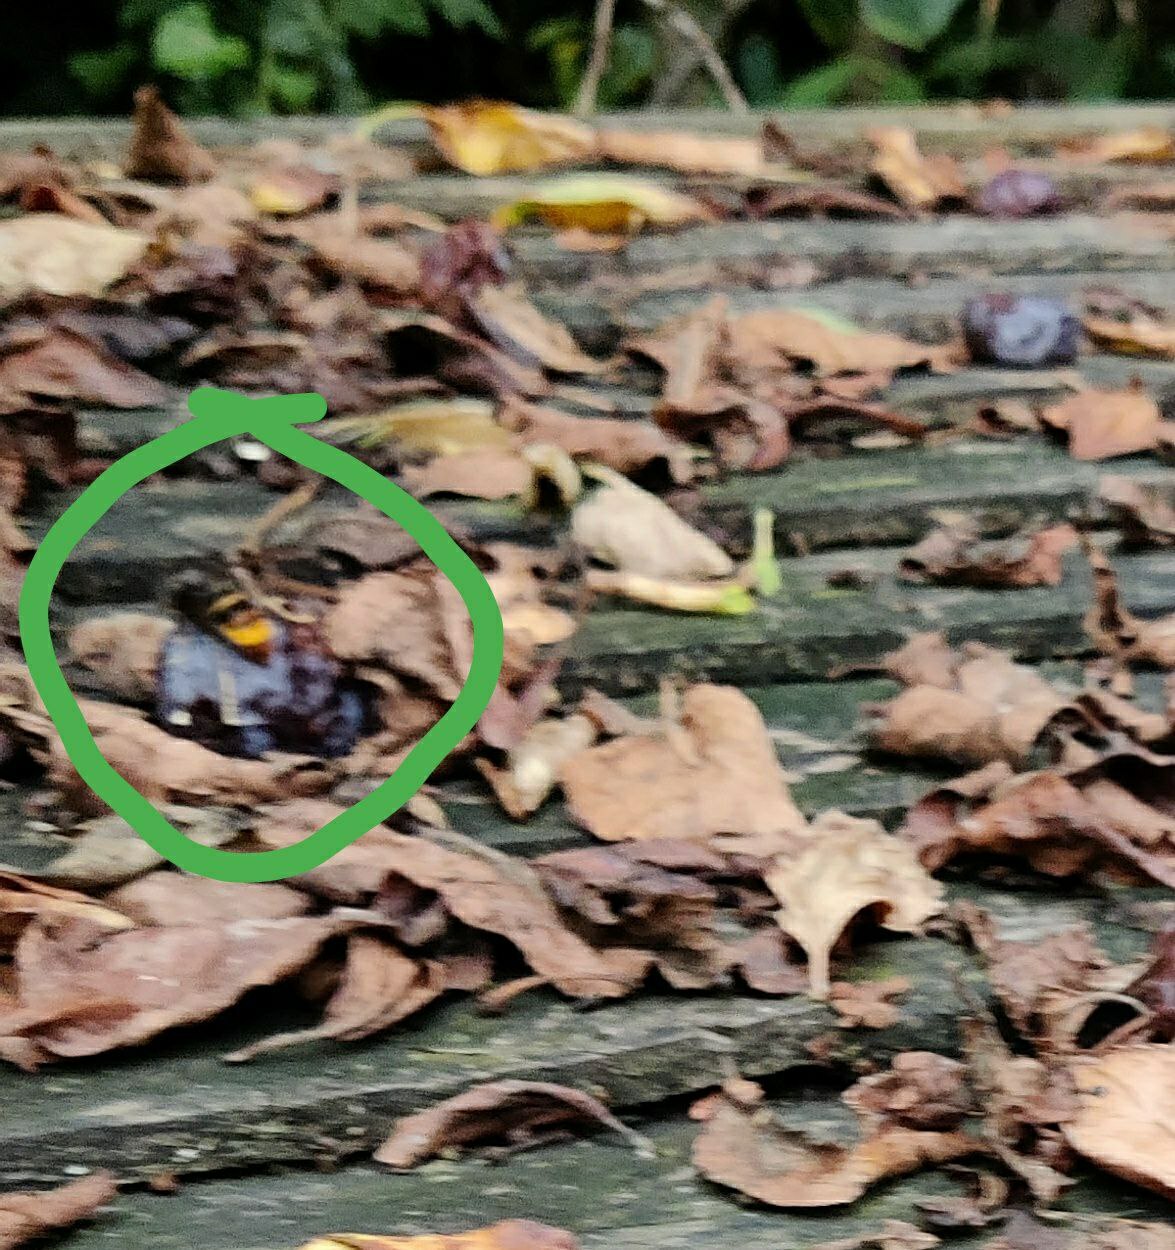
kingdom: Animalia
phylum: Arthropoda
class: Insecta
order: Hymenoptera
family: Vespidae
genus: Vespa
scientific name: Vespa velutina
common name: Asian hornet
